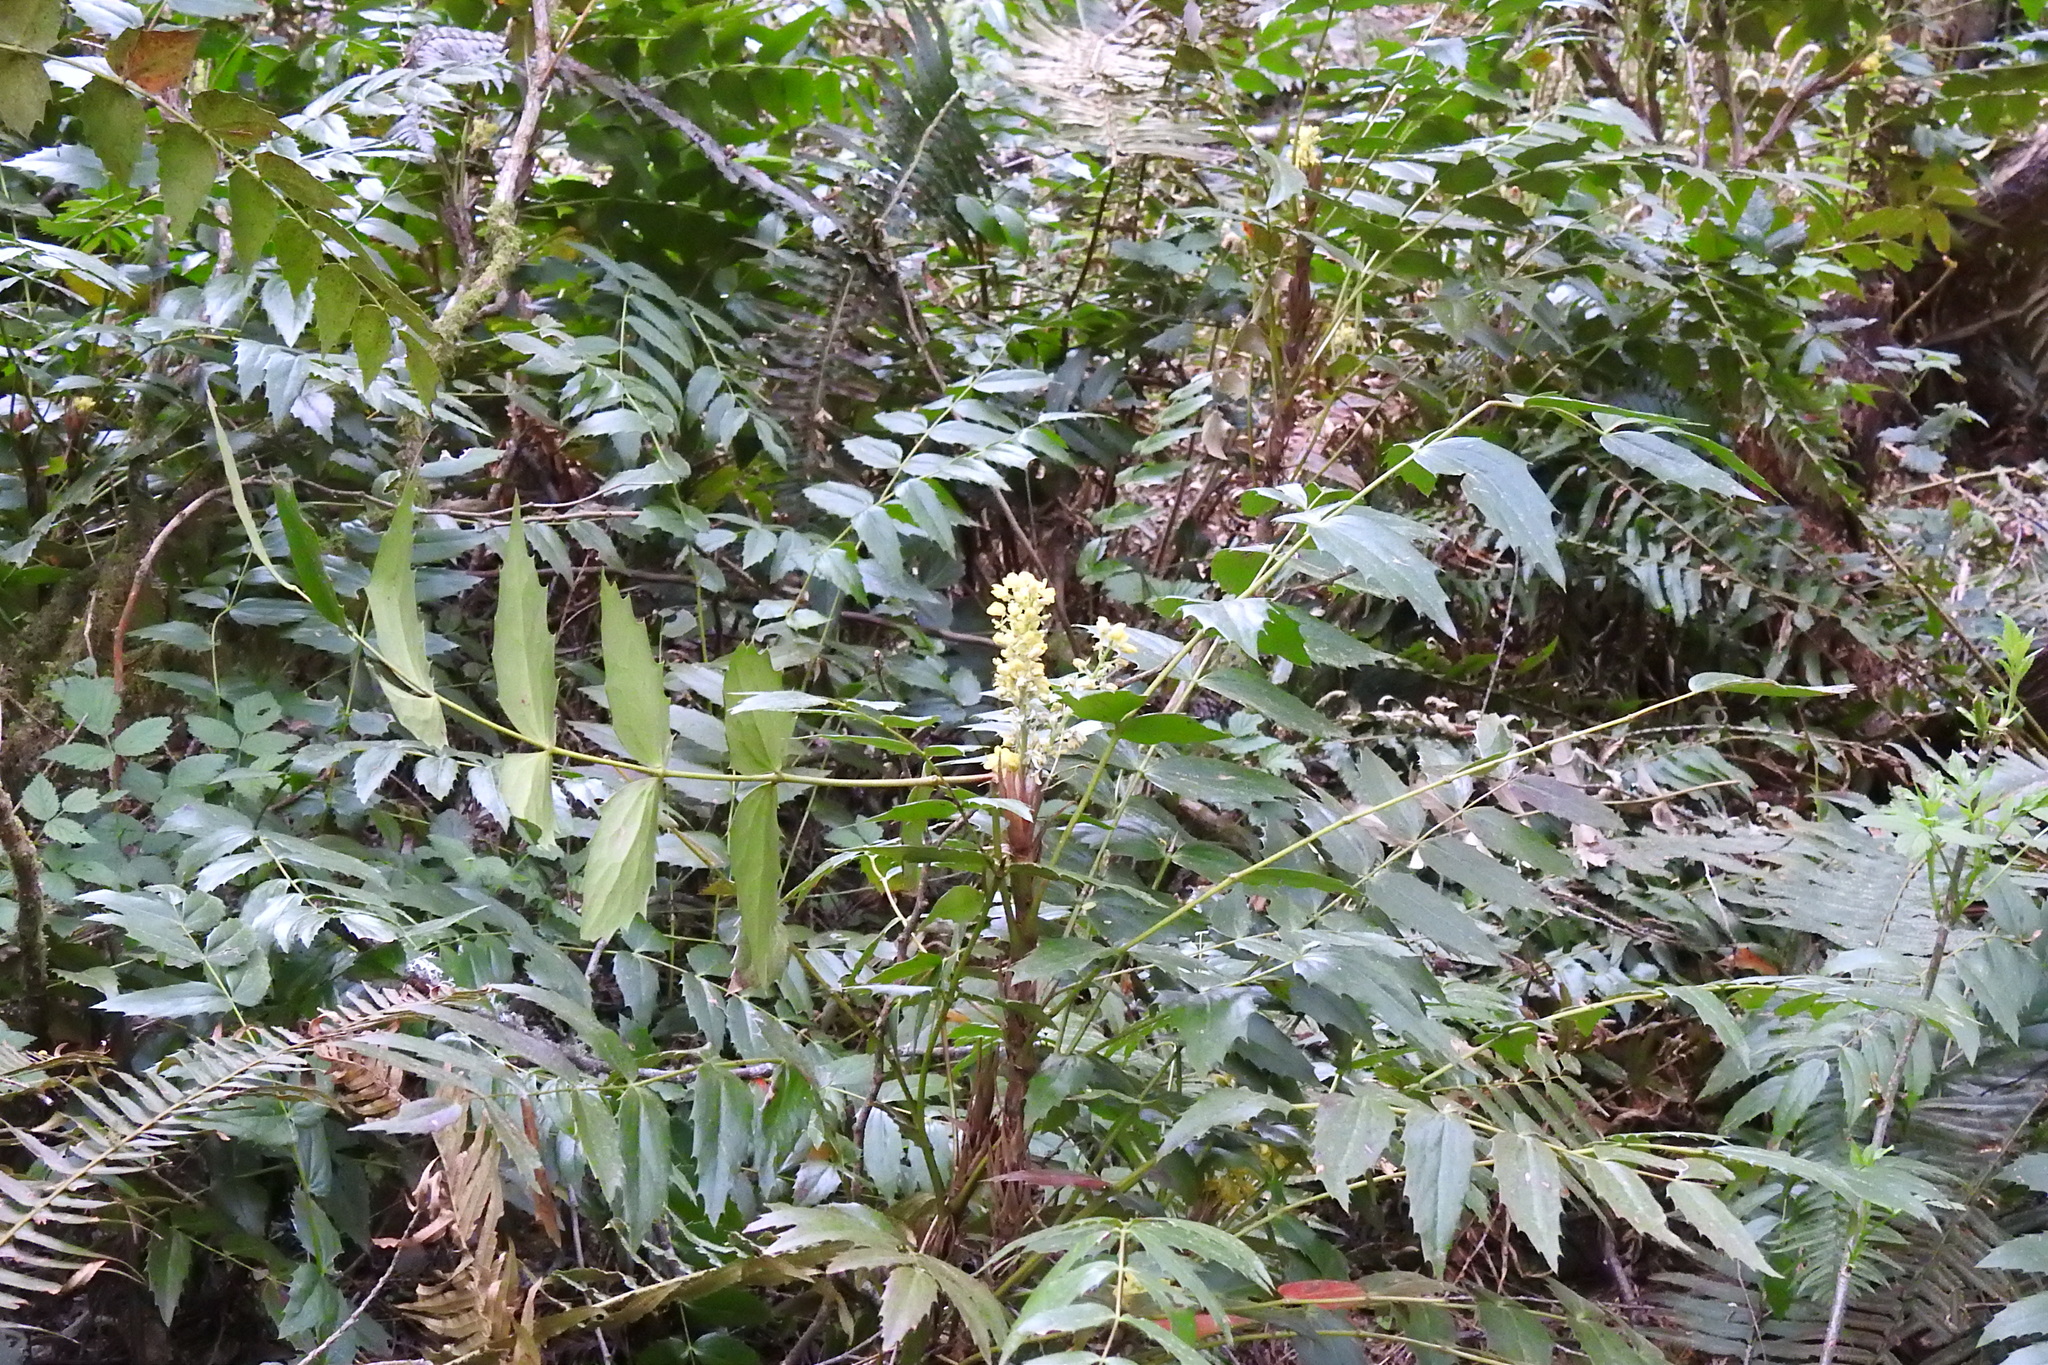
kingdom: Plantae
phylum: Tracheophyta
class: Magnoliopsida
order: Ranunculales
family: Berberidaceae
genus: Mahonia
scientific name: Mahonia nervosa
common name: Cascade oregon-grape
